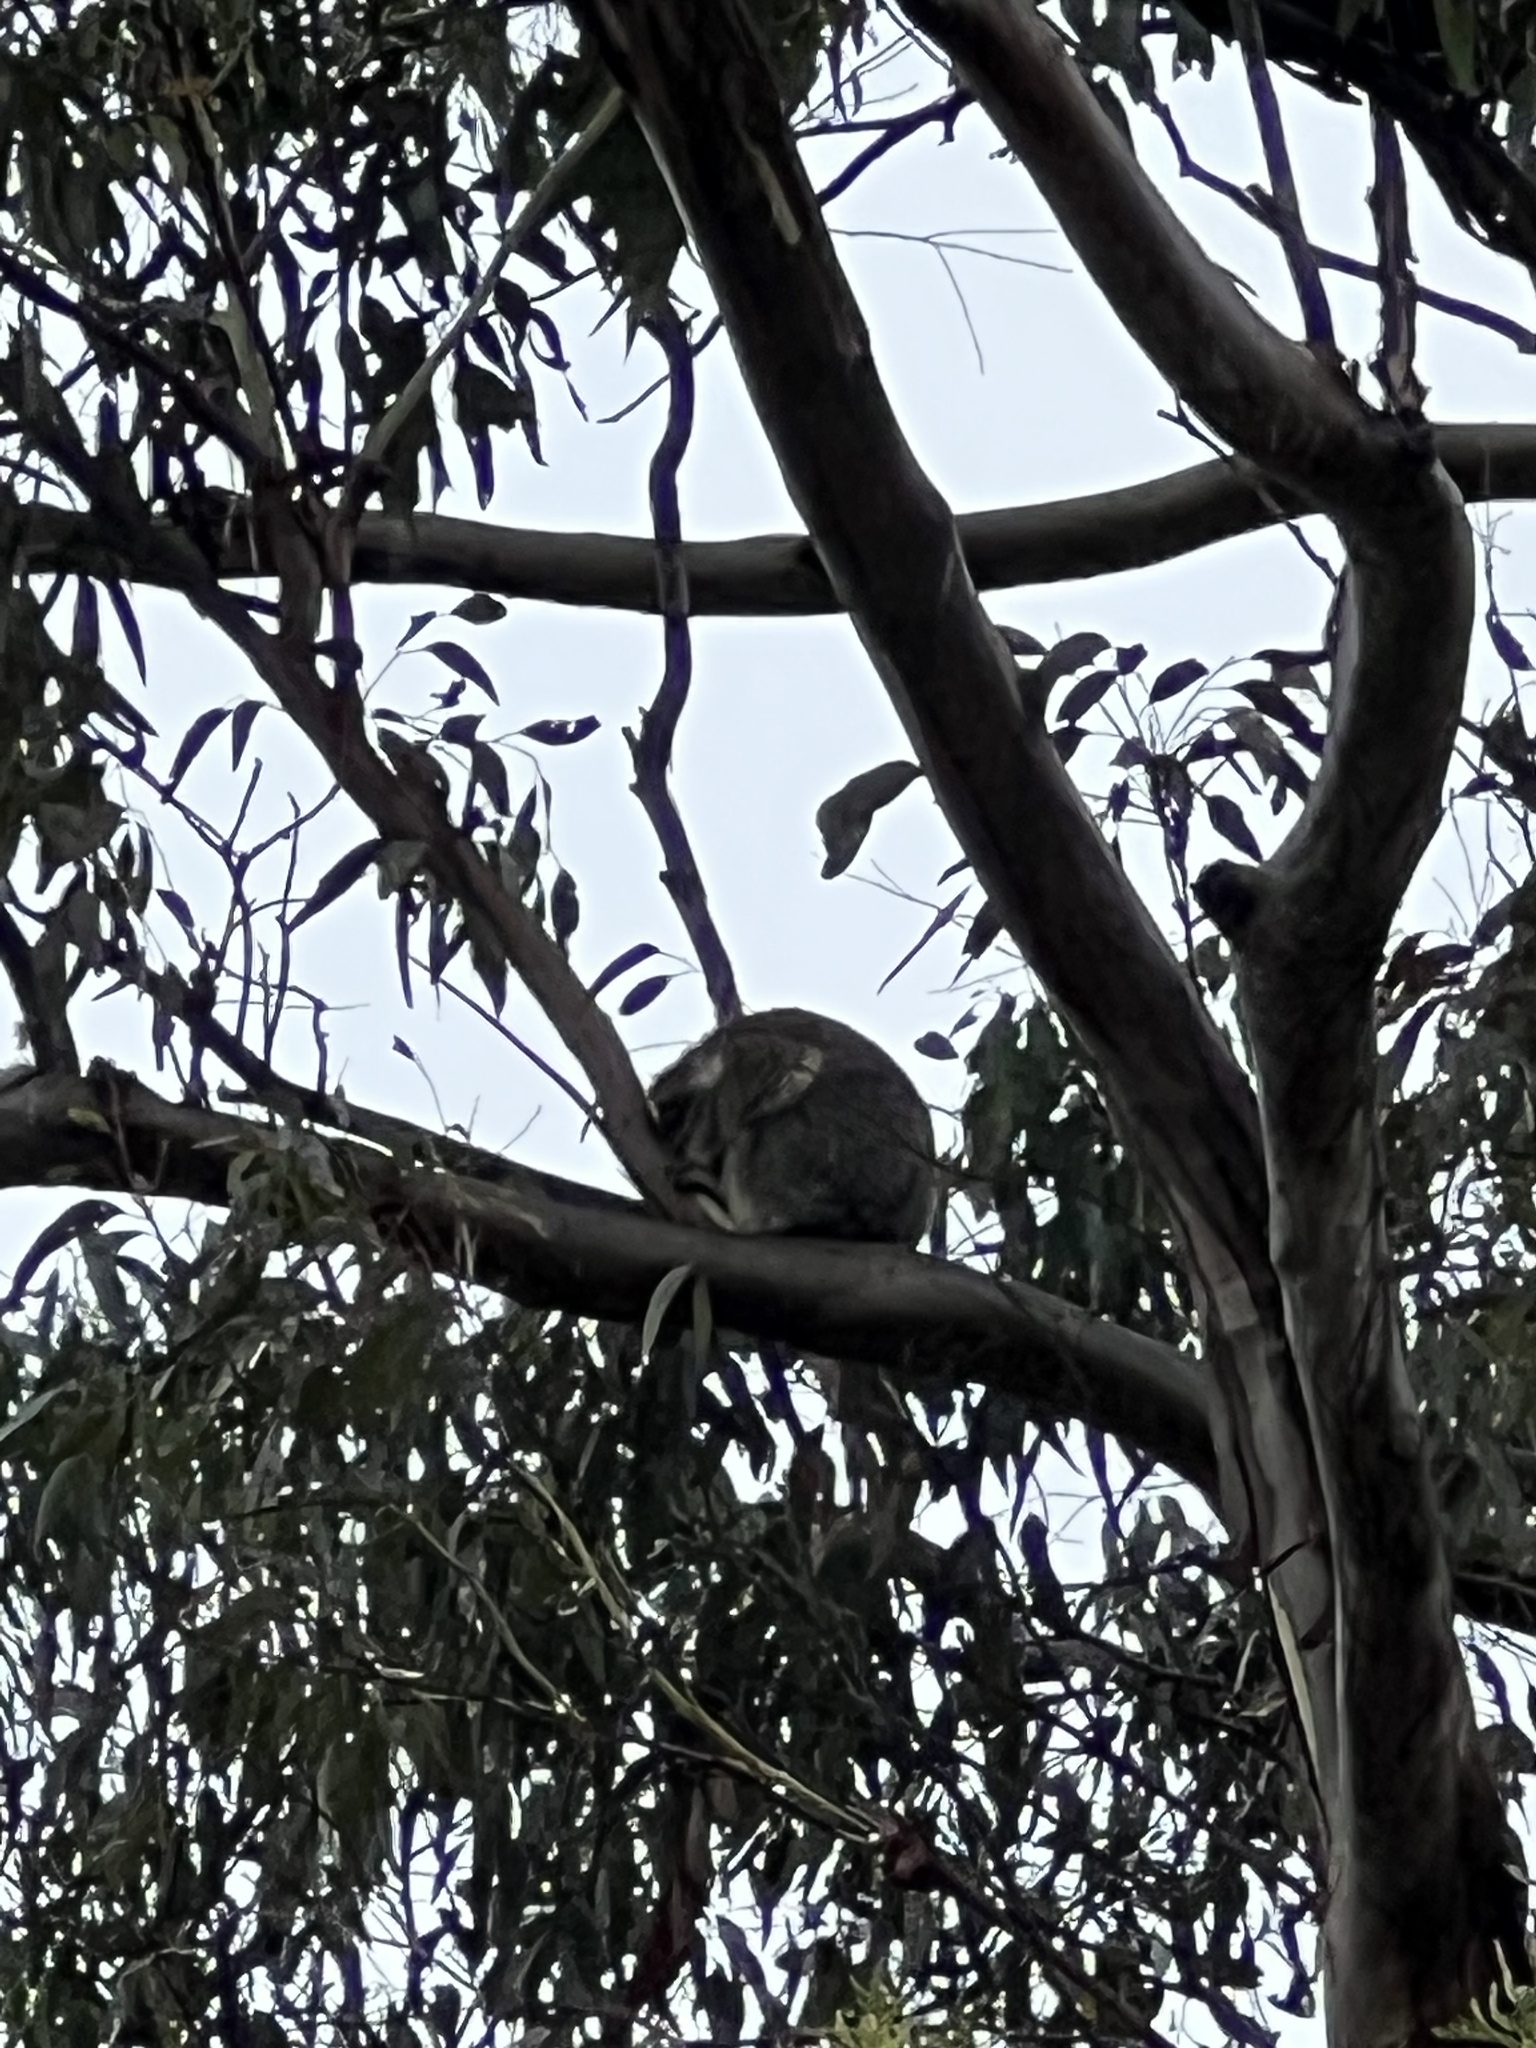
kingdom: Animalia
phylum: Chordata
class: Mammalia
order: Diprotodontia
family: Phascolarctidae
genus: Phascolarctos
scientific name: Phascolarctos cinereus
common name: Koala
